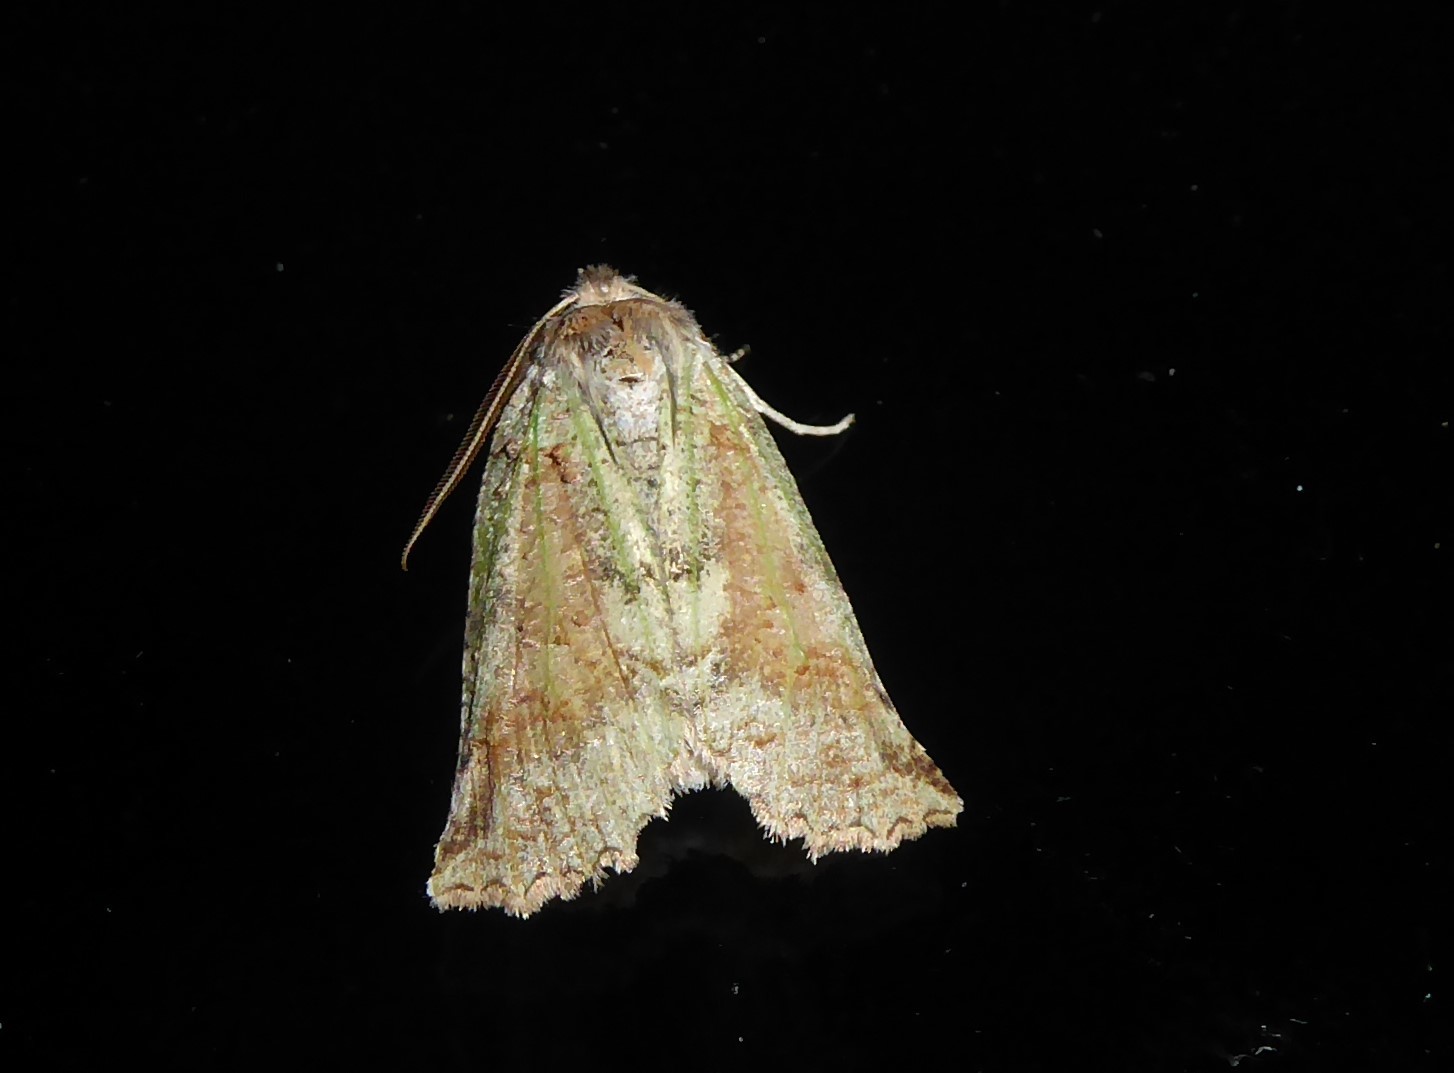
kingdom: Animalia
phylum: Arthropoda
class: Insecta
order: Lepidoptera
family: Geometridae
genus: Declana
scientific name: Declana floccosa
